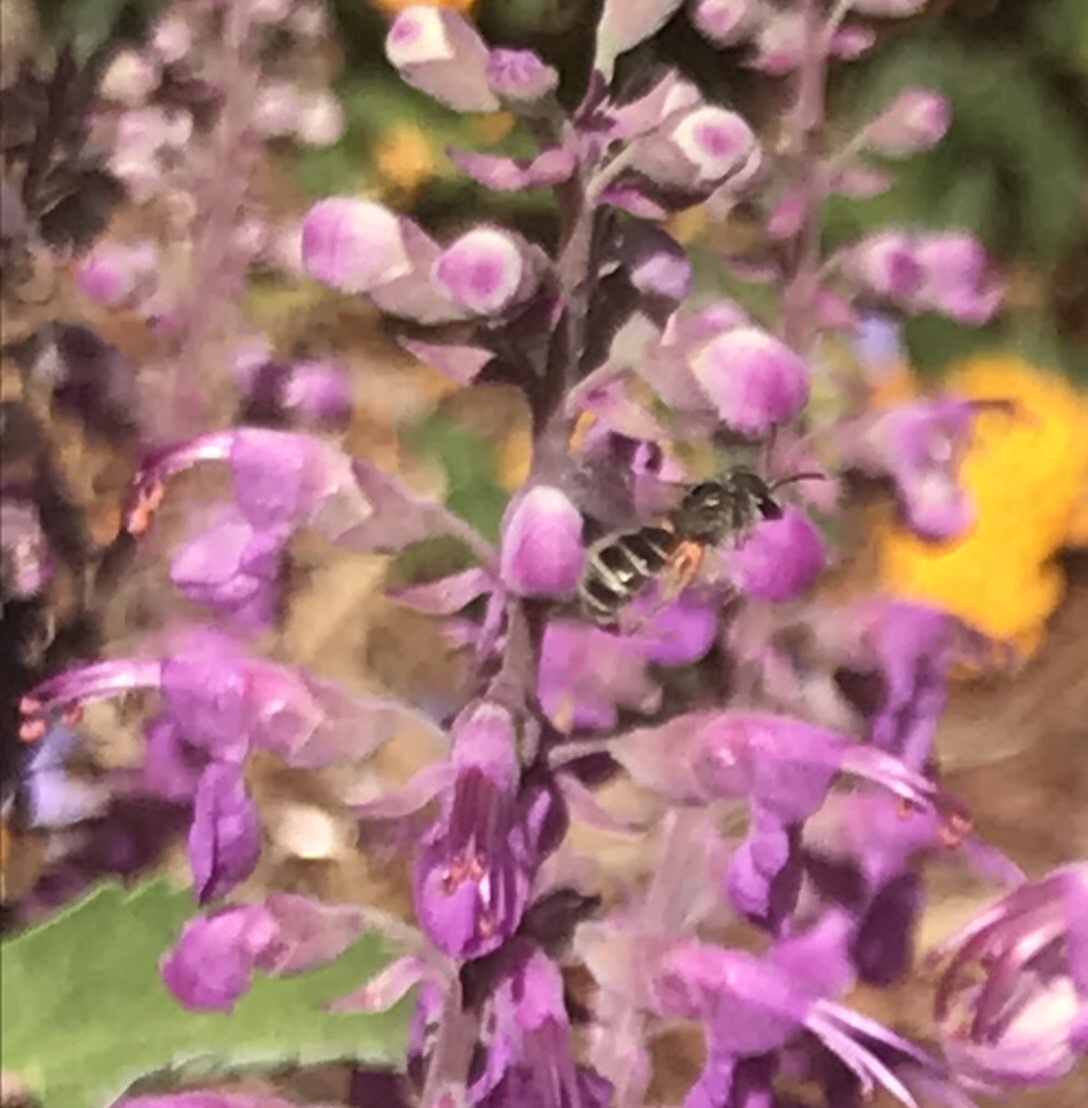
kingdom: Animalia
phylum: Arthropoda
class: Insecta
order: Hymenoptera
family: Halictidae
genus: Halictus
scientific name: Halictus tripartitus
